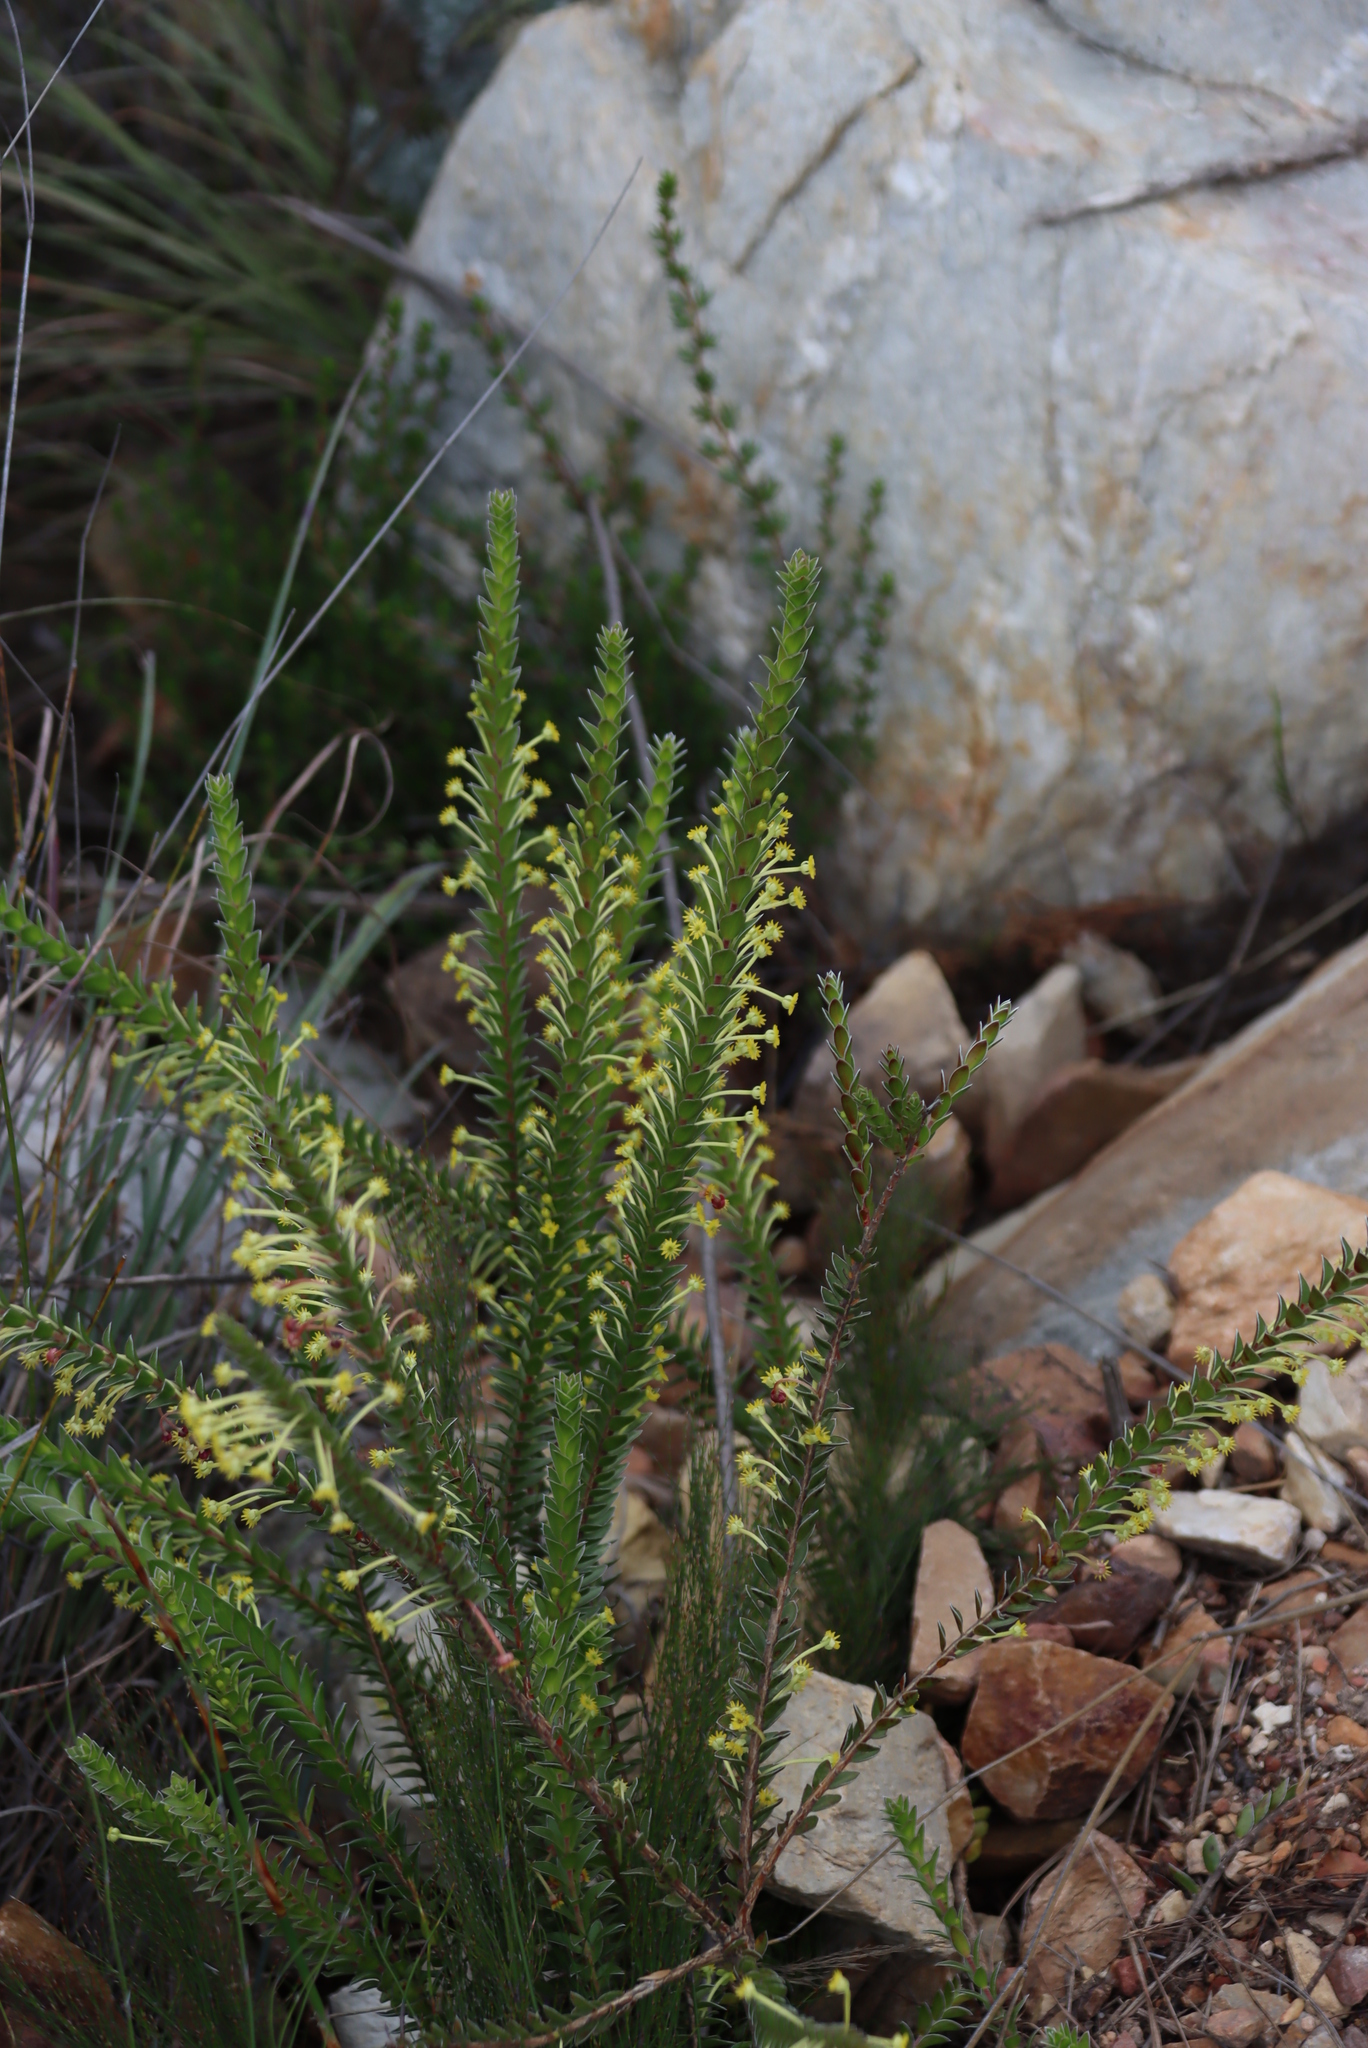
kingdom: Plantae
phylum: Tracheophyta
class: Magnoliopsida
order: Malvales
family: Thymelaeaceae
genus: Struthiola
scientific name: Struthiola argentea
